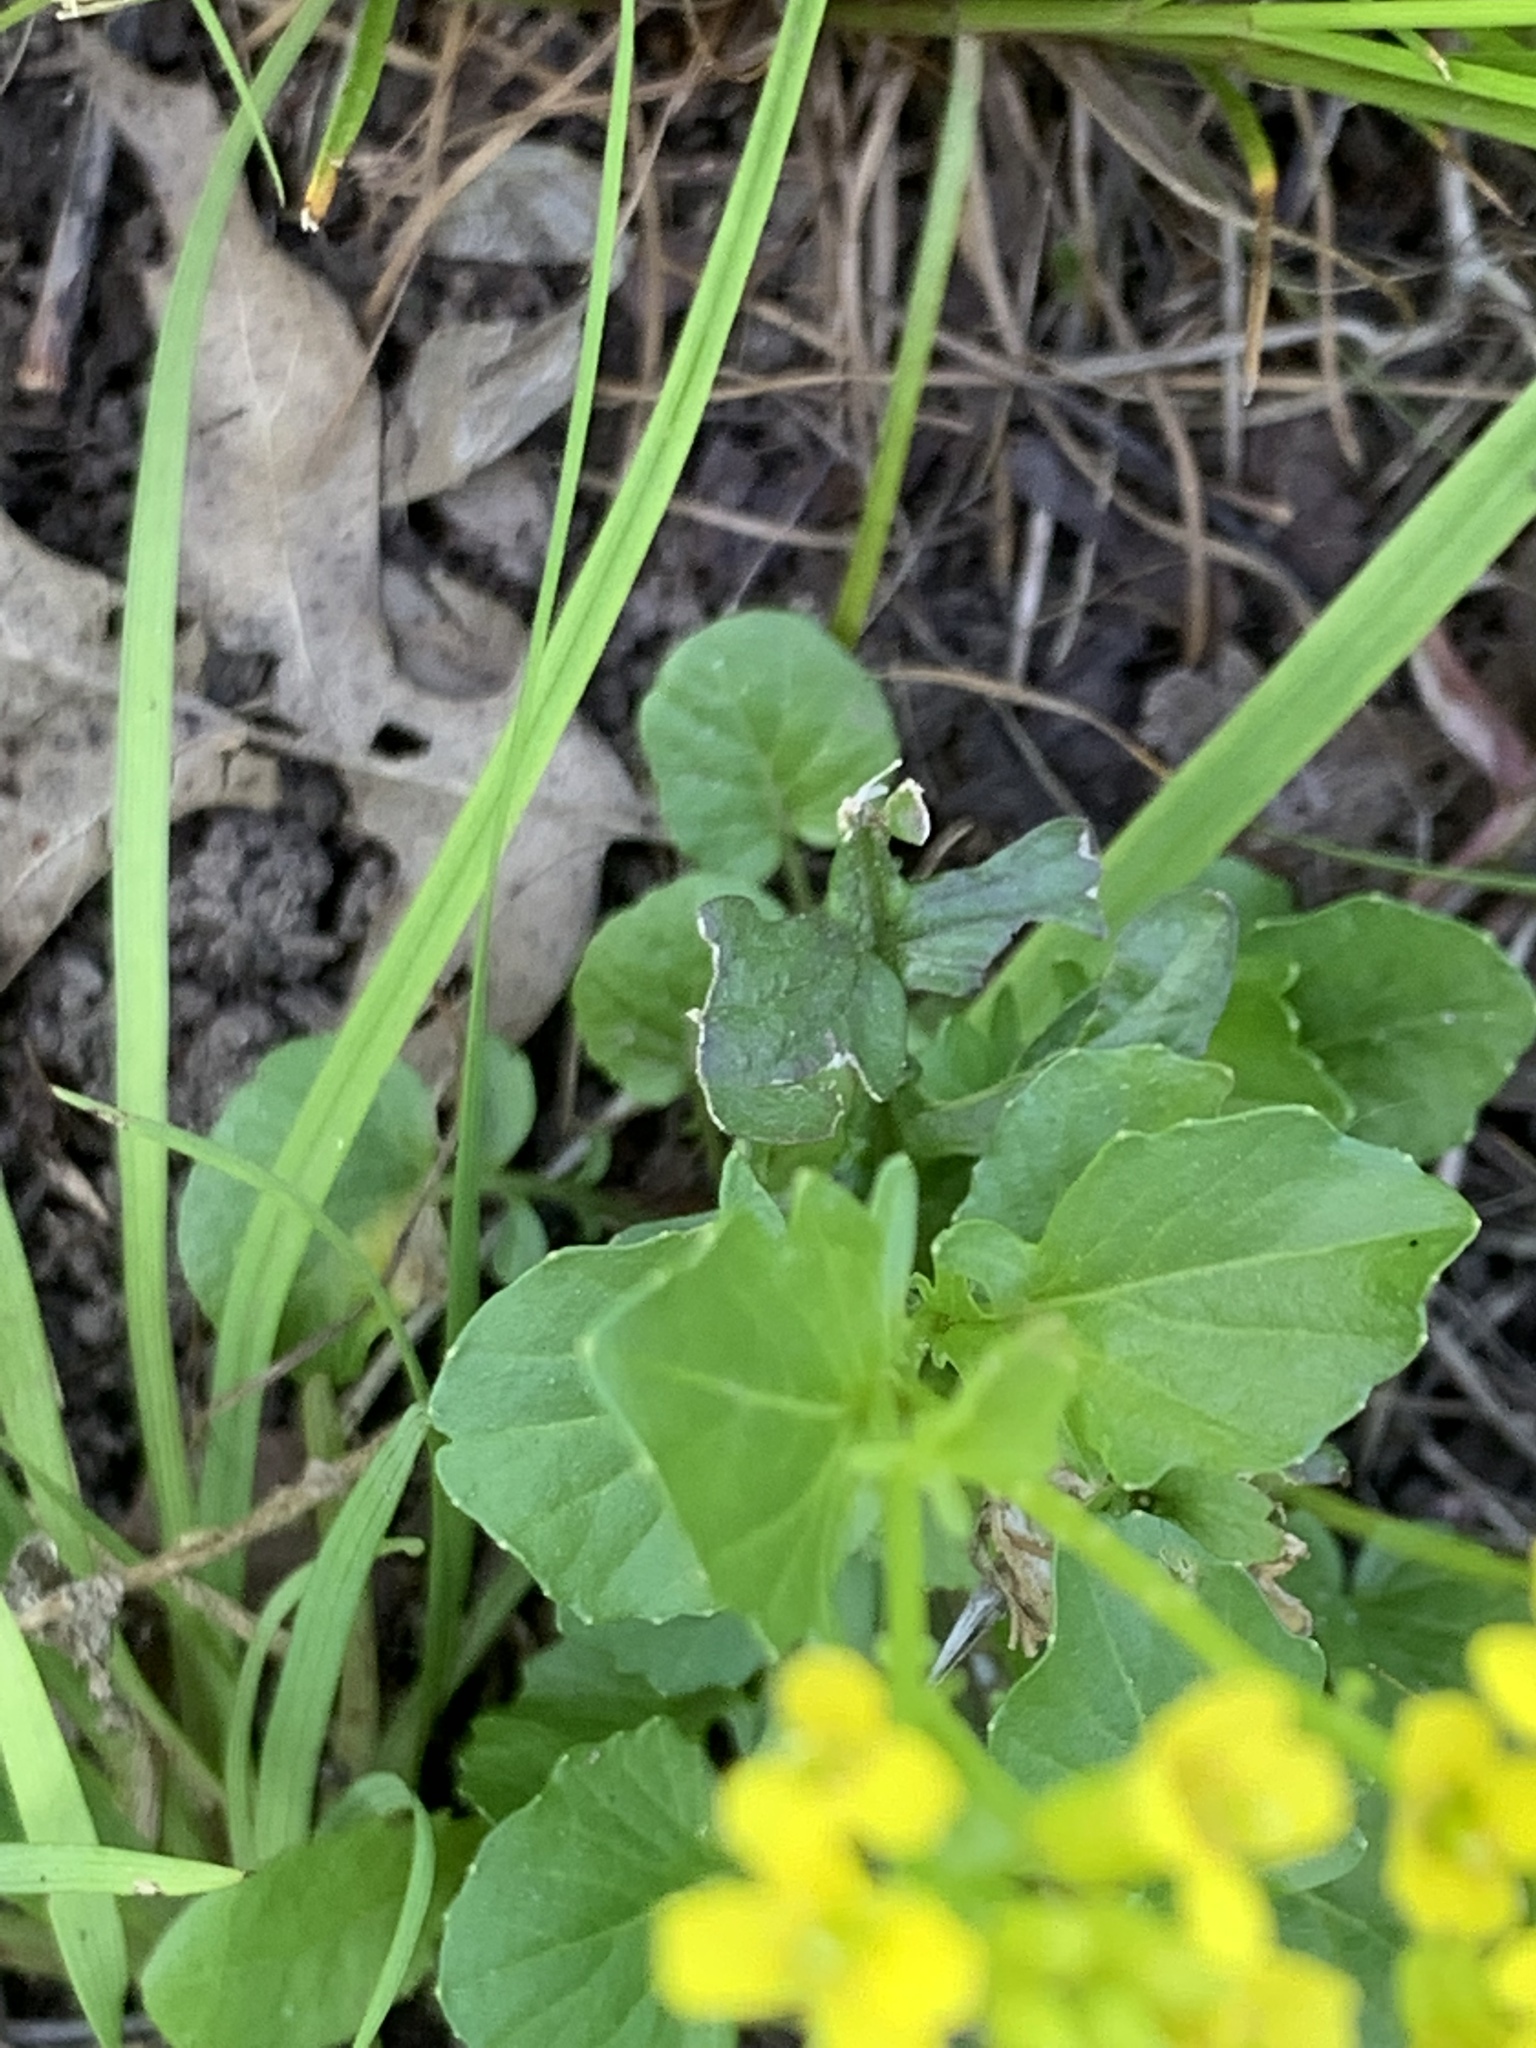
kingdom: Plantae
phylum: Tracheophyta
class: Magnoliopsida
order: Brassicales
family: Brassicaceae
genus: Barbarea
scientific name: Barbarea vulgaris
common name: Cressy-greens
